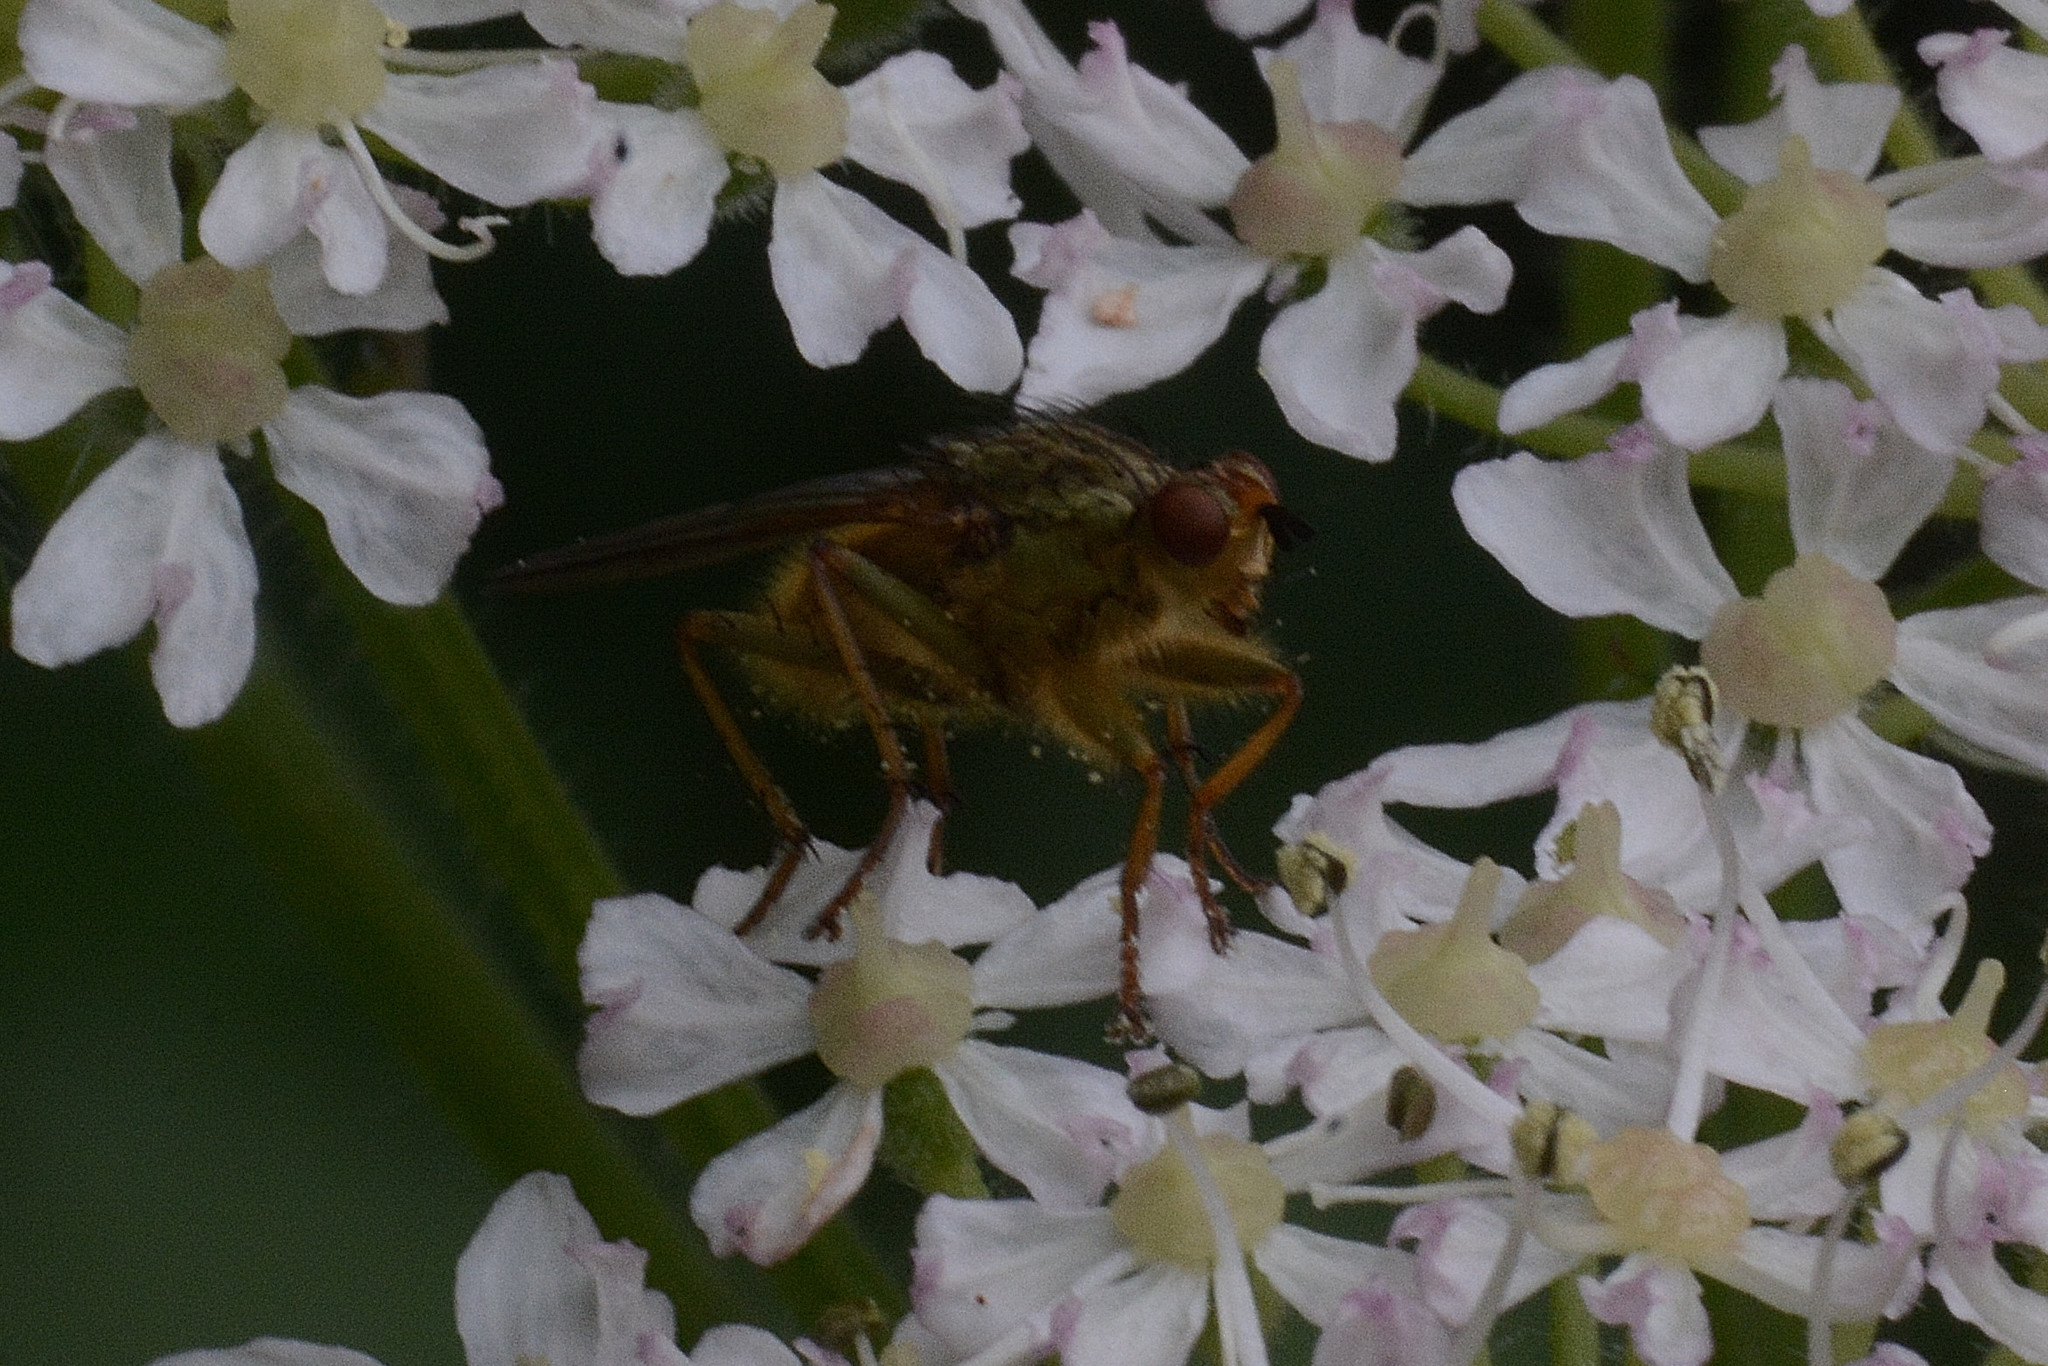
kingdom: Animalia
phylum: Arthropoda
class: Insecta
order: Diptera
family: Scathophagidae
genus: Scathophaga
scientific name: Scathophaga stercoraria
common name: Yellow dung fly
